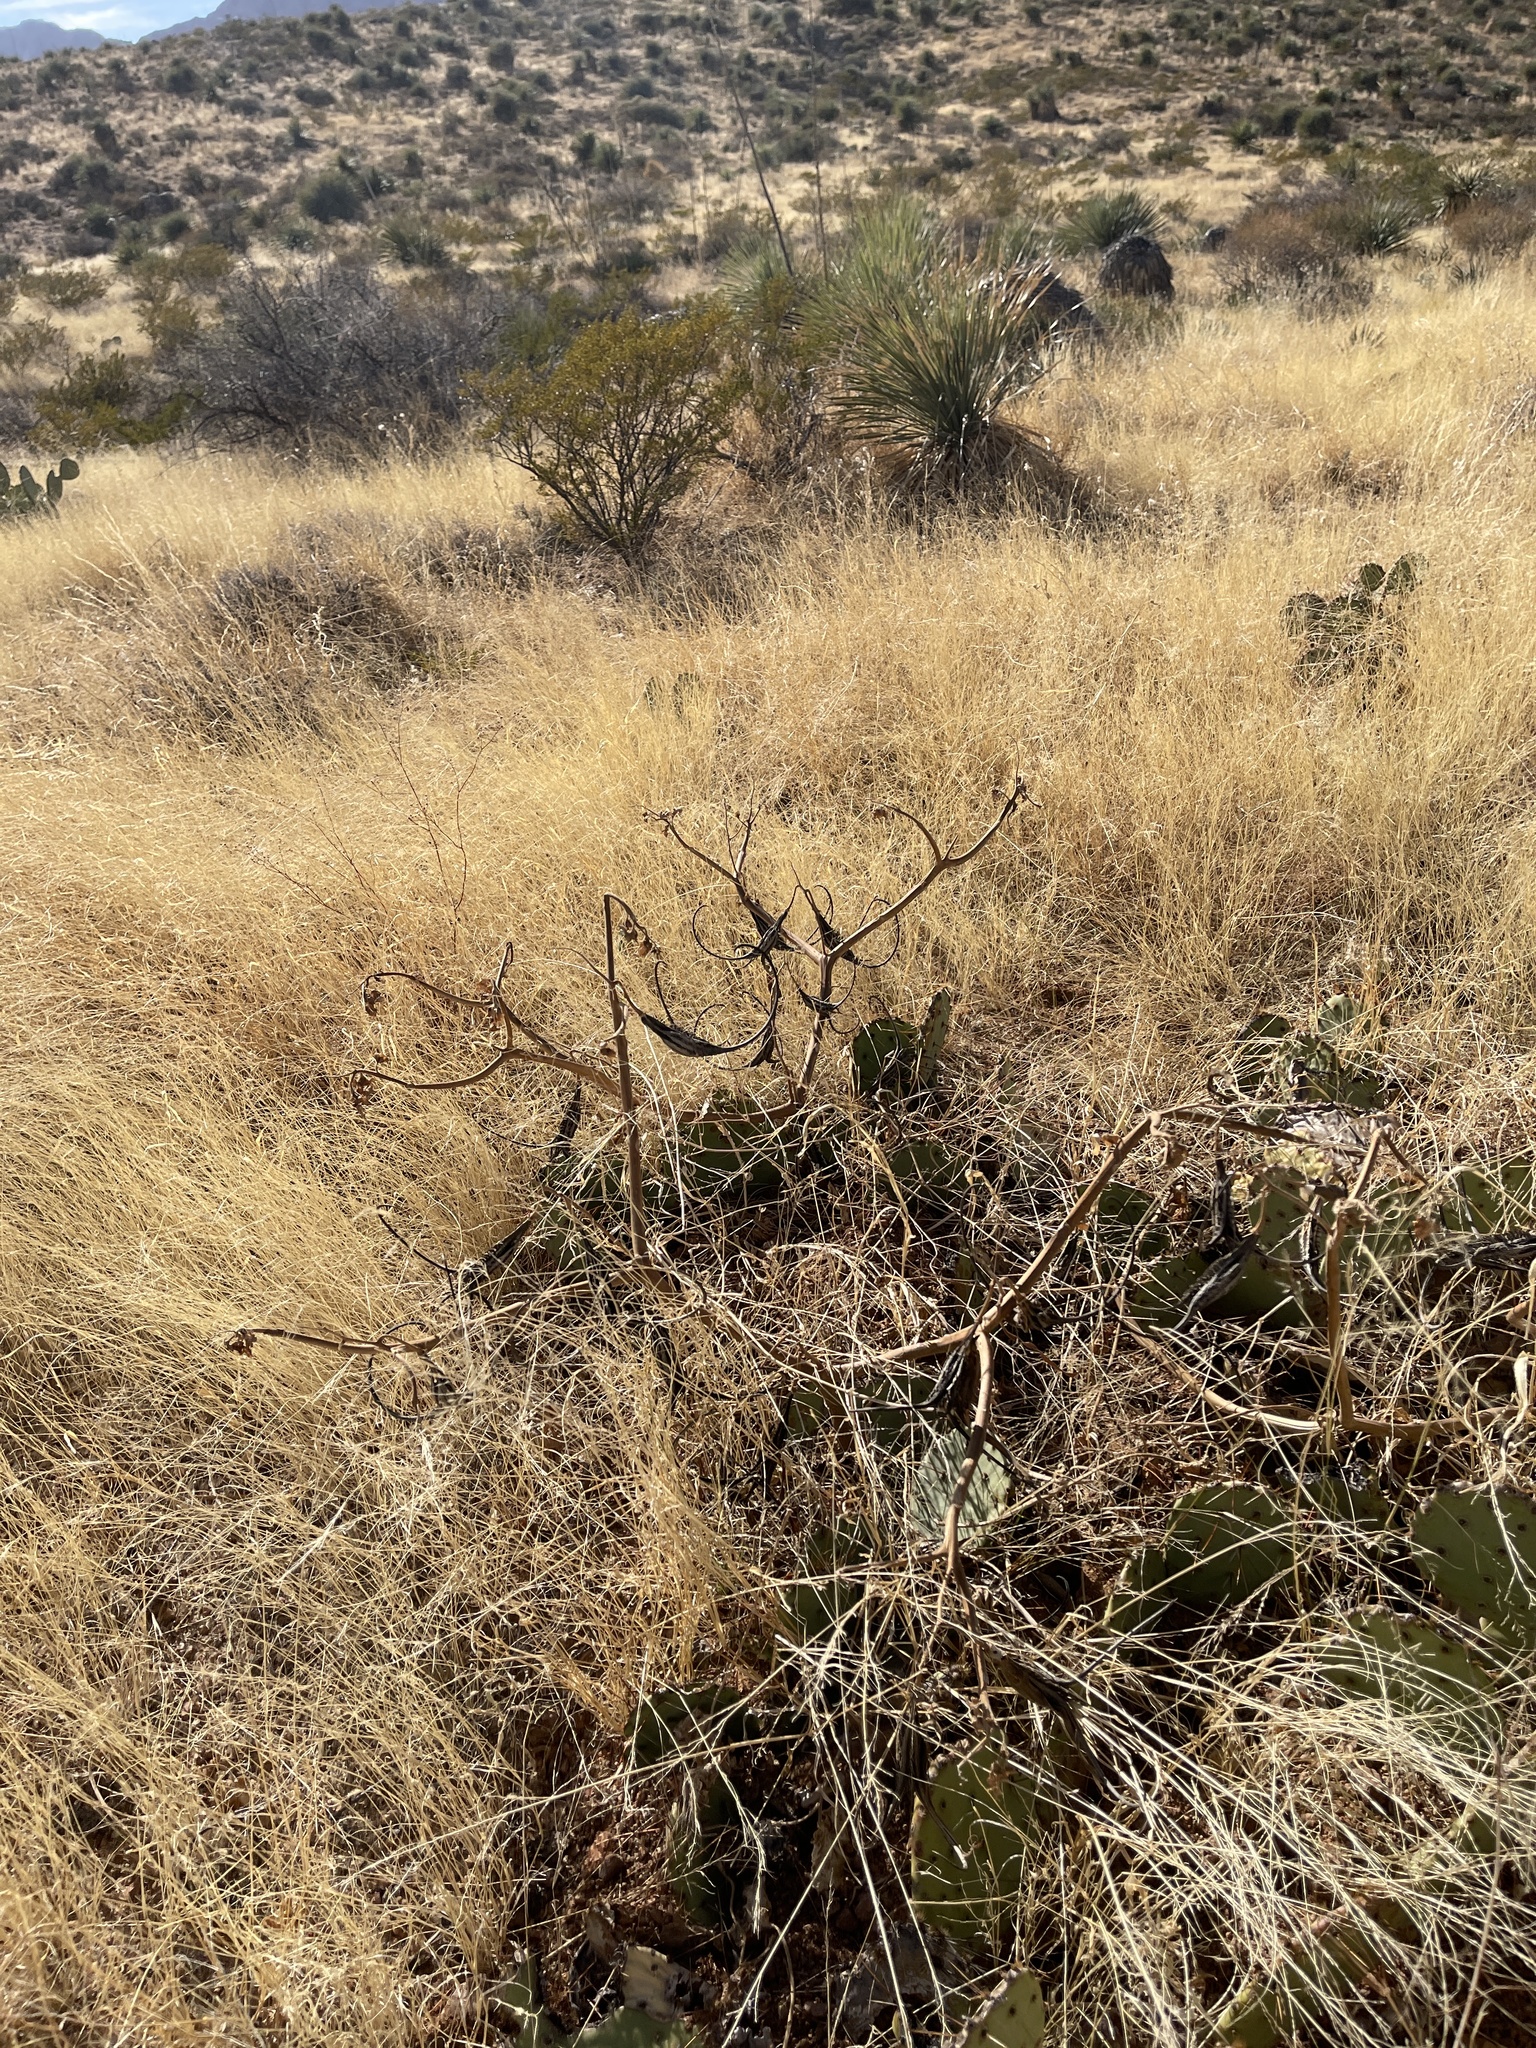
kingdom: Plantae
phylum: Tracheophyta
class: Magnoliopsida
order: Lamiales
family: Martyniaceae
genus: Proboscidea
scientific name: Proboscidea parviflora
